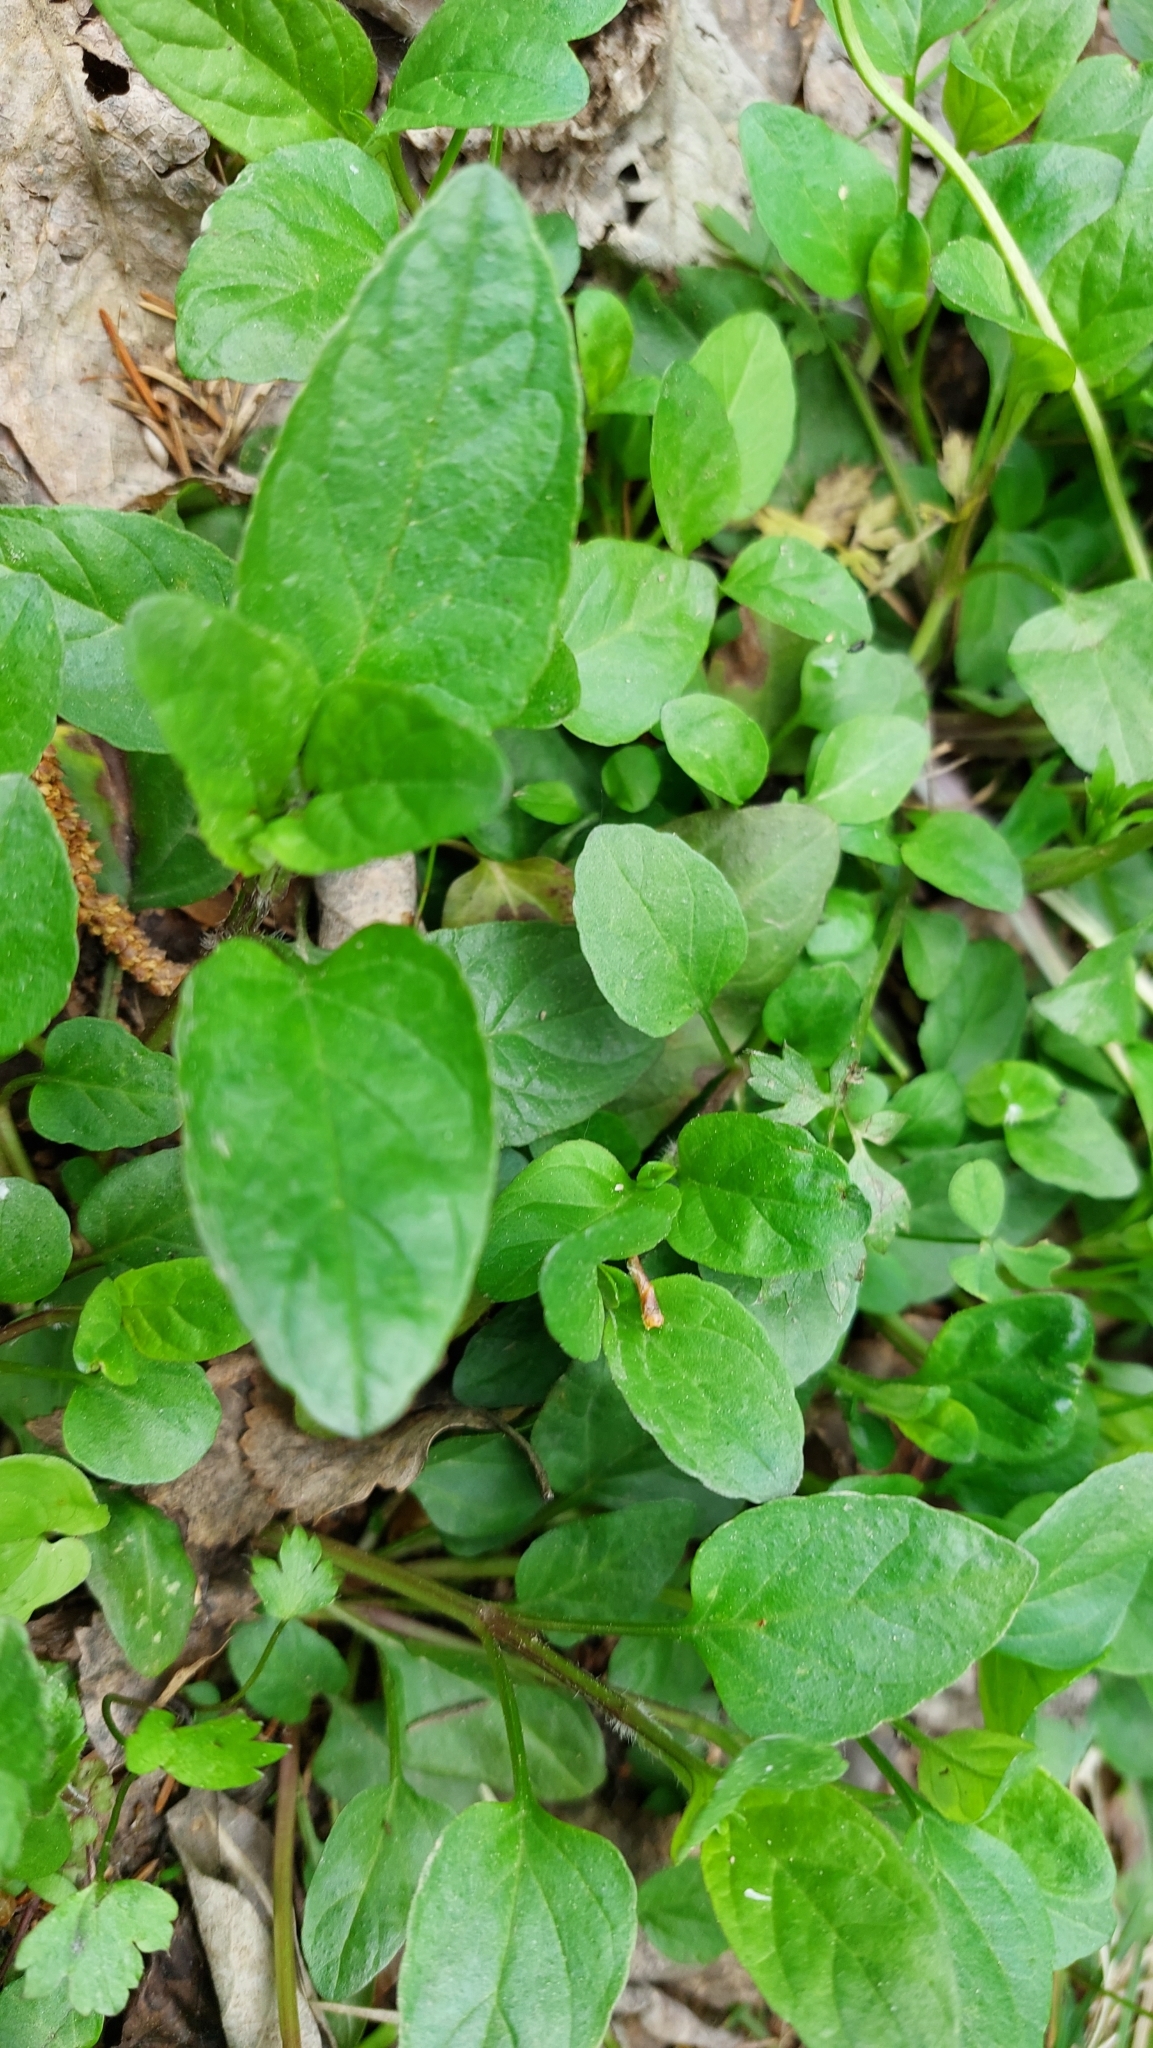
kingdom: Plantae
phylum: Tracheophyta
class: Magnoliopsida
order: Lamiales
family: Lamiaceae
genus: Prunella
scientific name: Prunella vulgaris
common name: Heal-all
